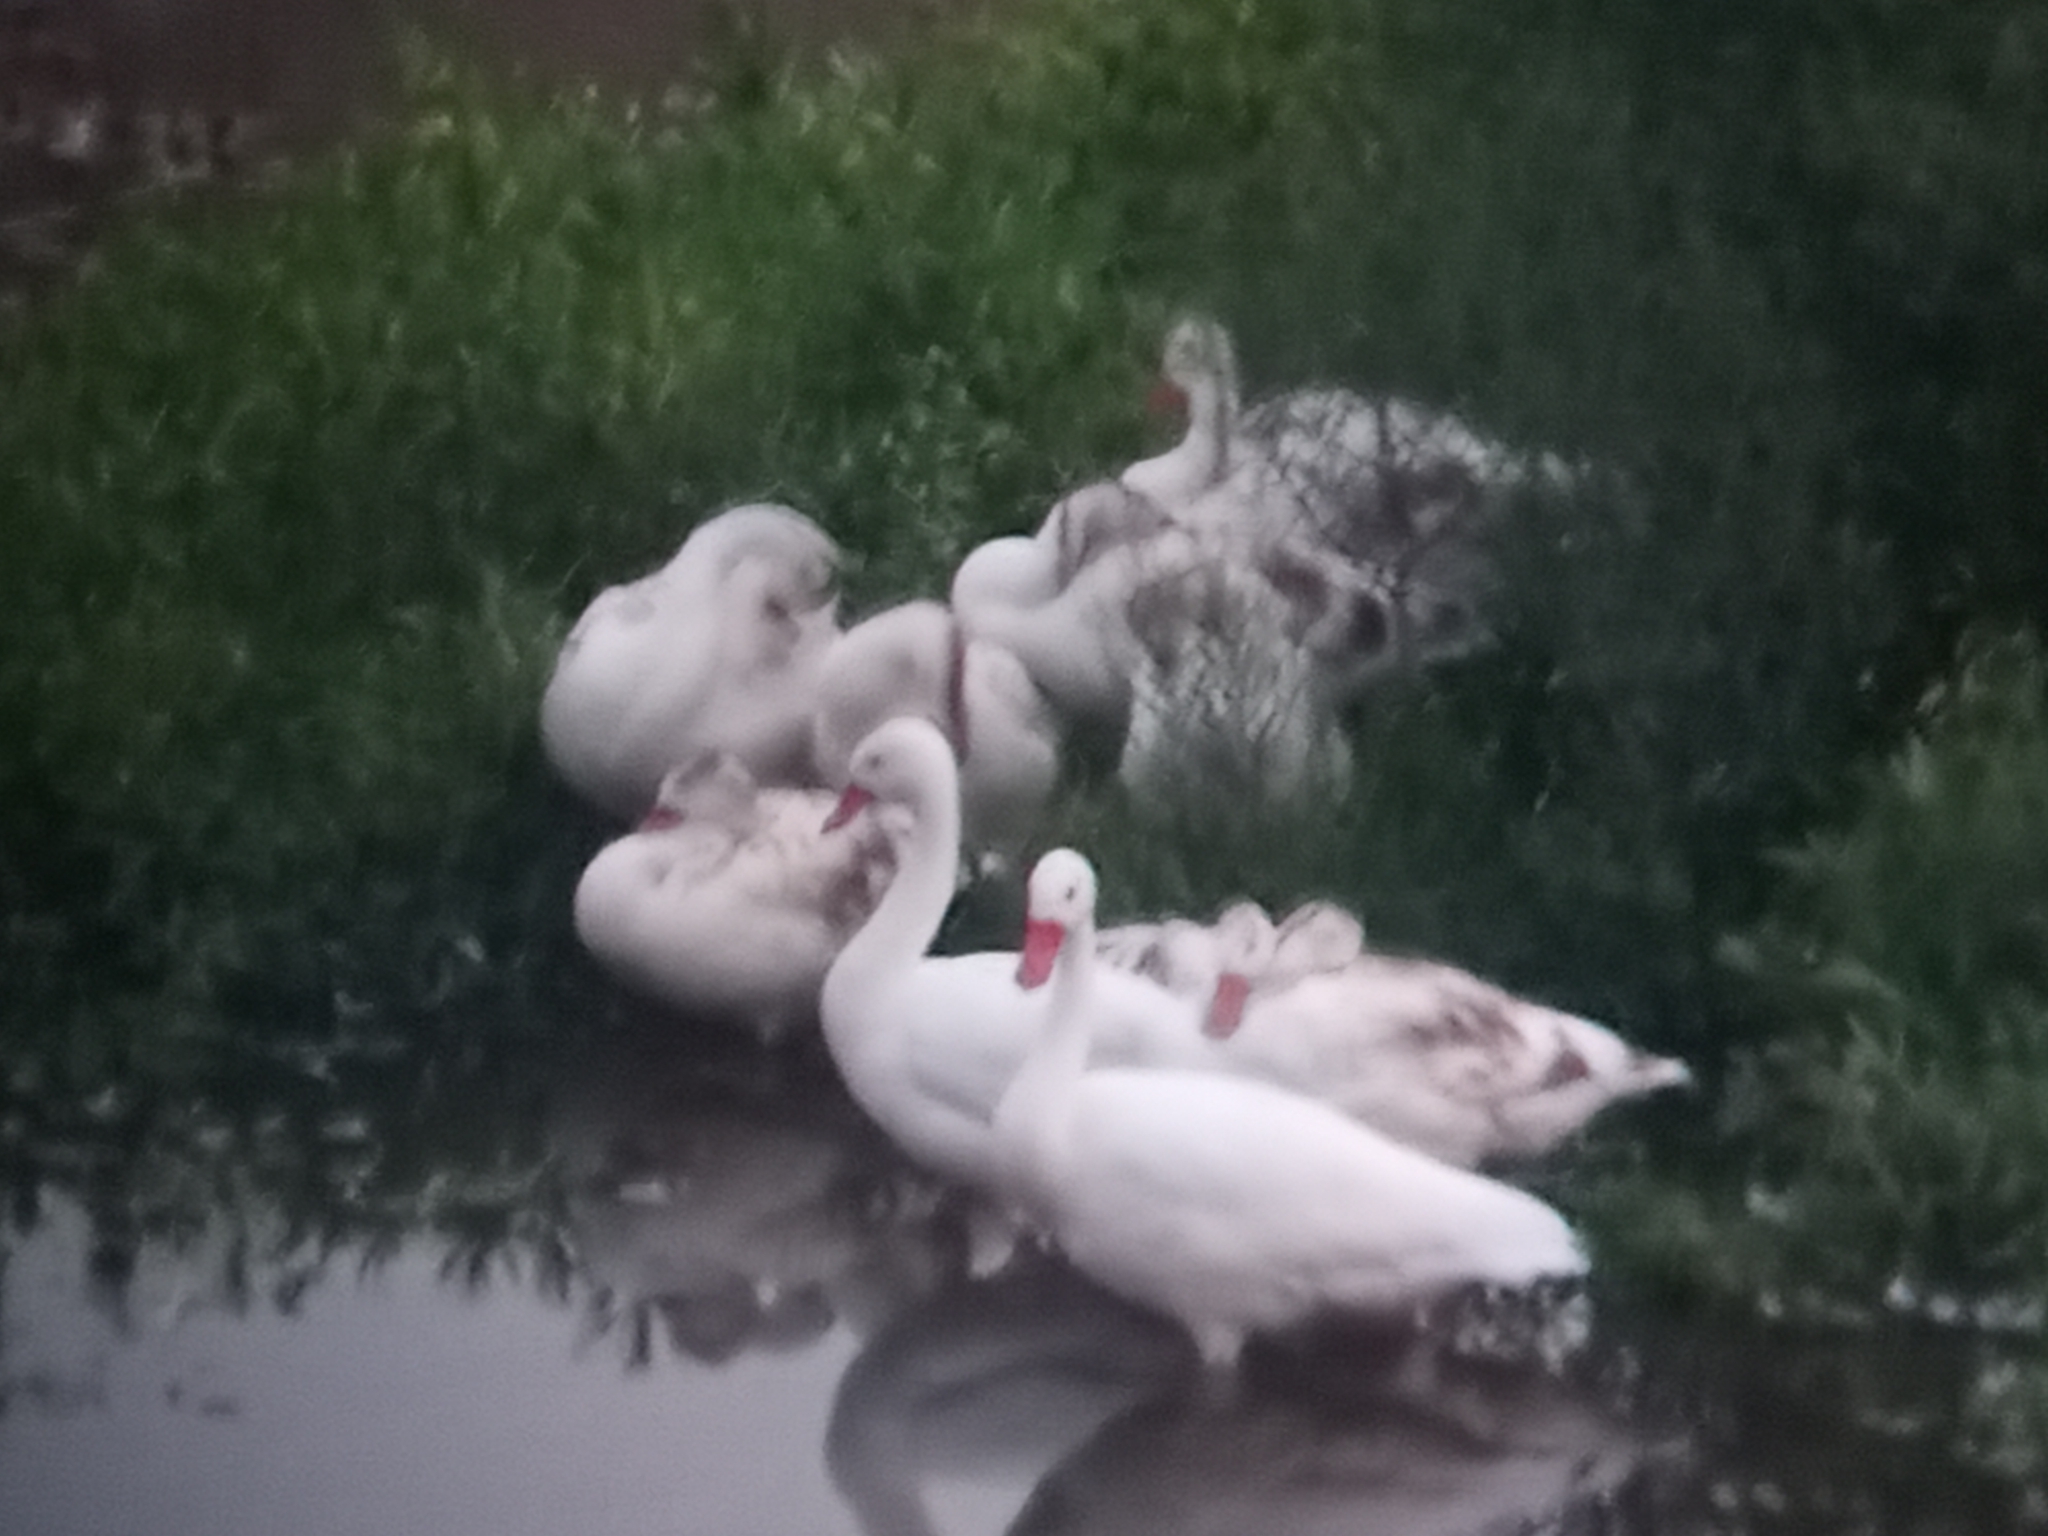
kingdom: Animalia
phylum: Chordata
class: Aves
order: Anseriformes
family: Anatidae
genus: Coscoroba
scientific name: Coscoroba coscoroba
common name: Coscoroba swan
